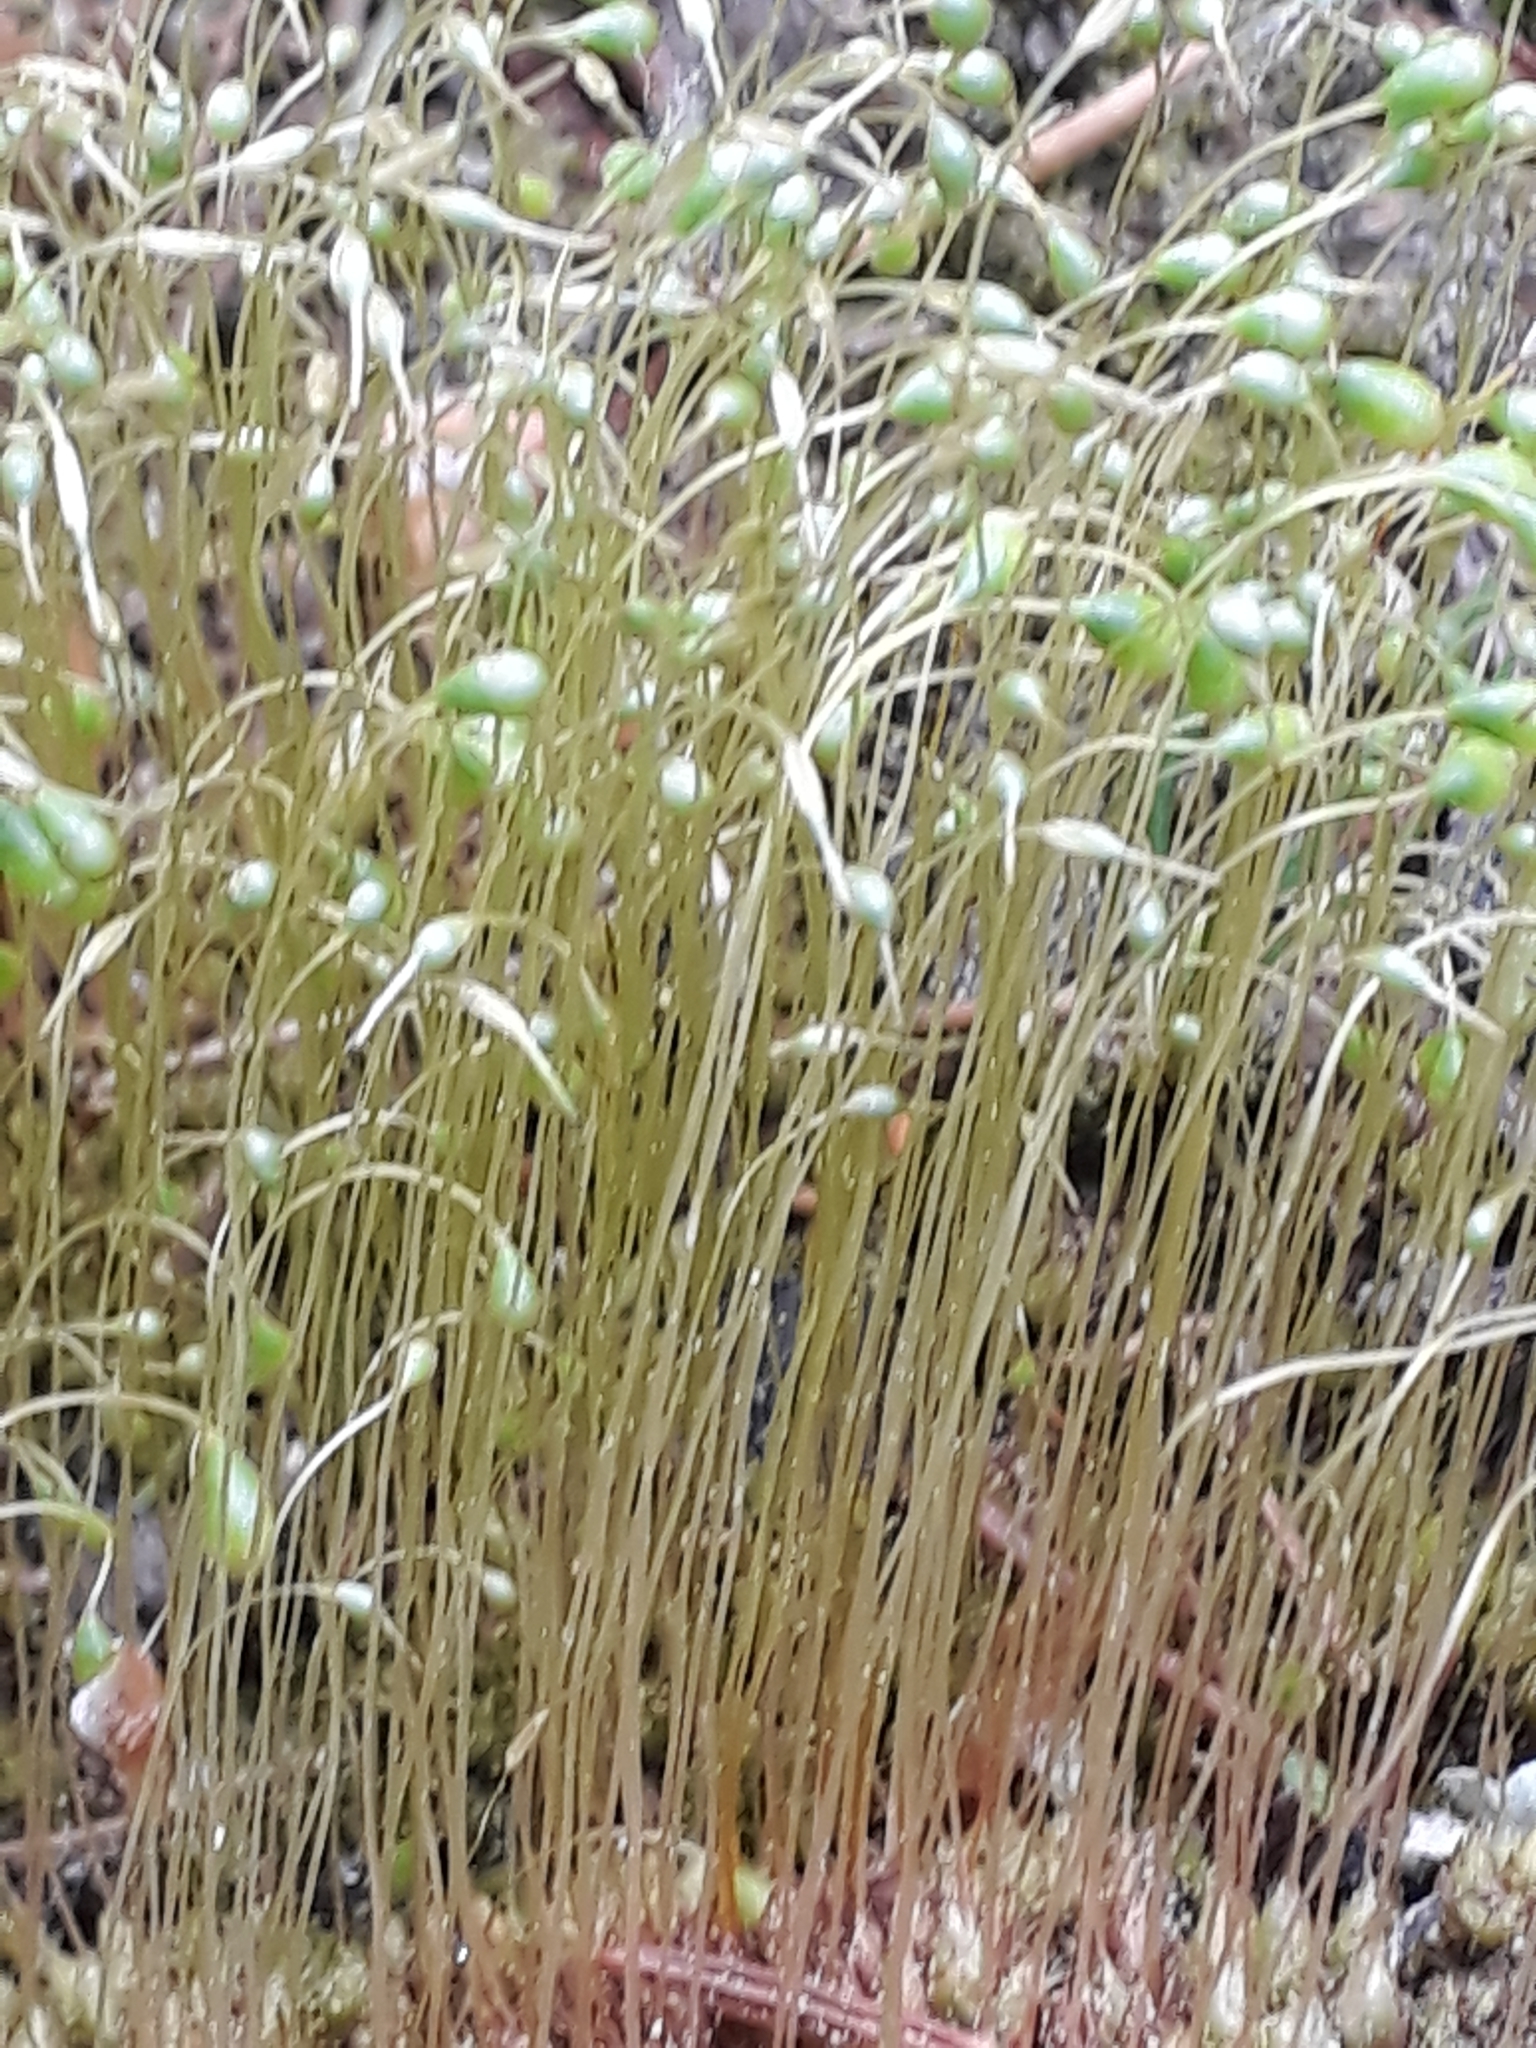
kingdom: Plantae
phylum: Bryophyta
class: Bryopsida
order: Funariales
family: Funariaceae
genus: Funaria
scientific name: Funaria hygrometrica
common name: Common cord moss
